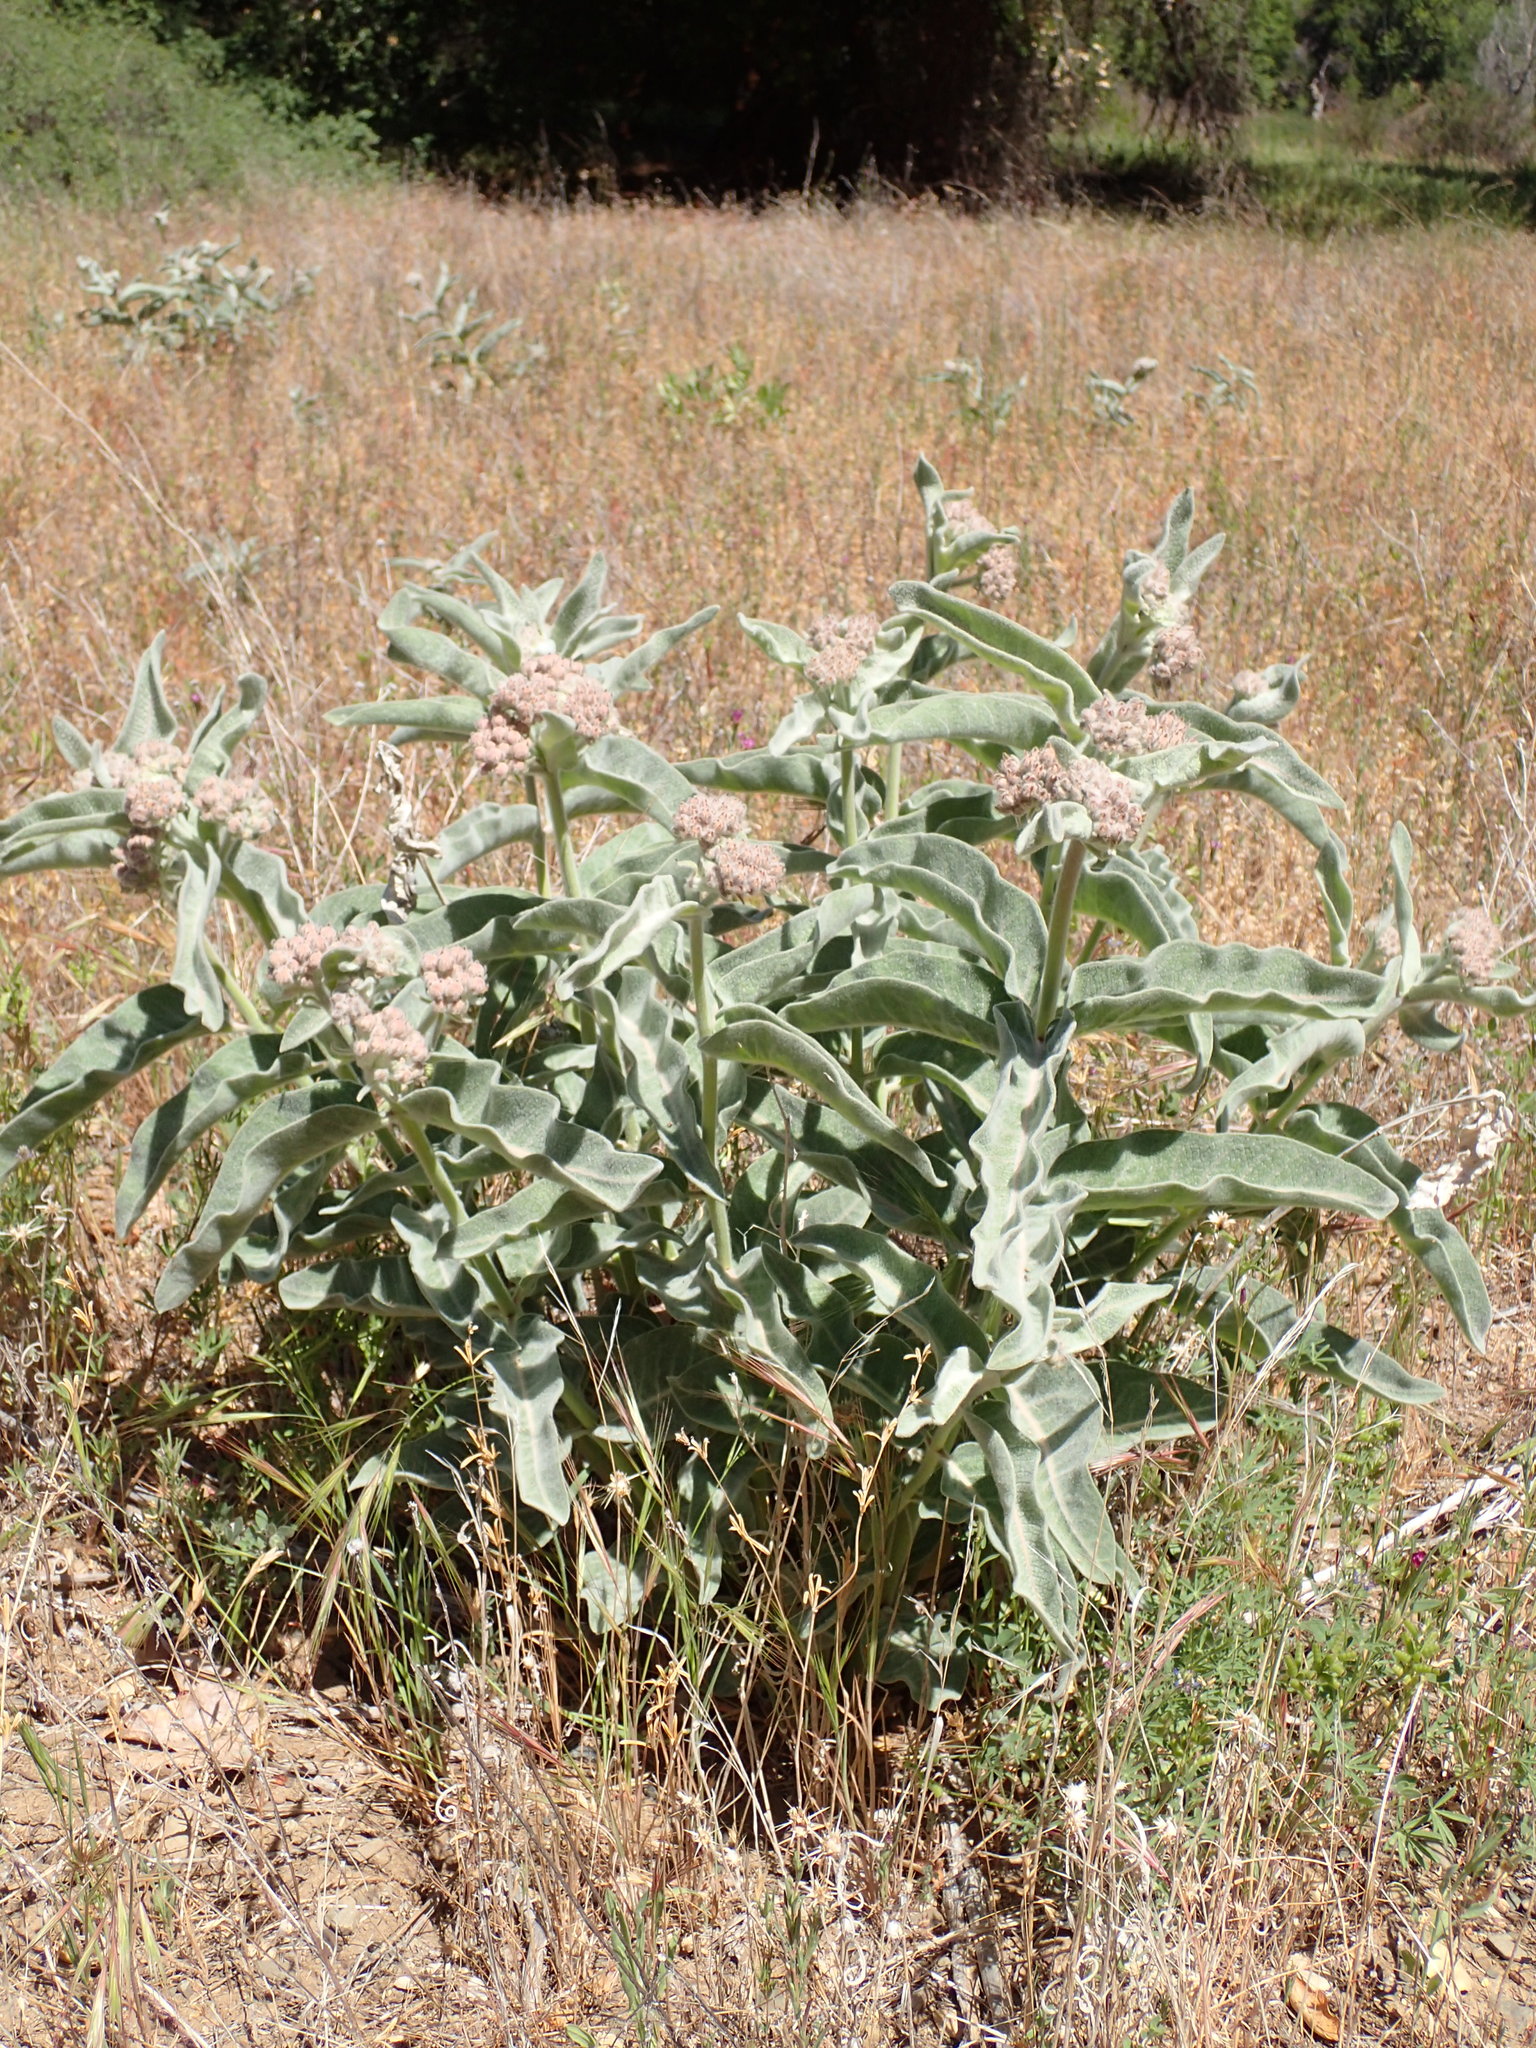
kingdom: Plantae
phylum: Tracheophyta
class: Magnoliopsida
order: Gentianales
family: Apocynaceae
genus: Asclepias
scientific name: Asclepias eriocarpa
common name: Indian milkweed
